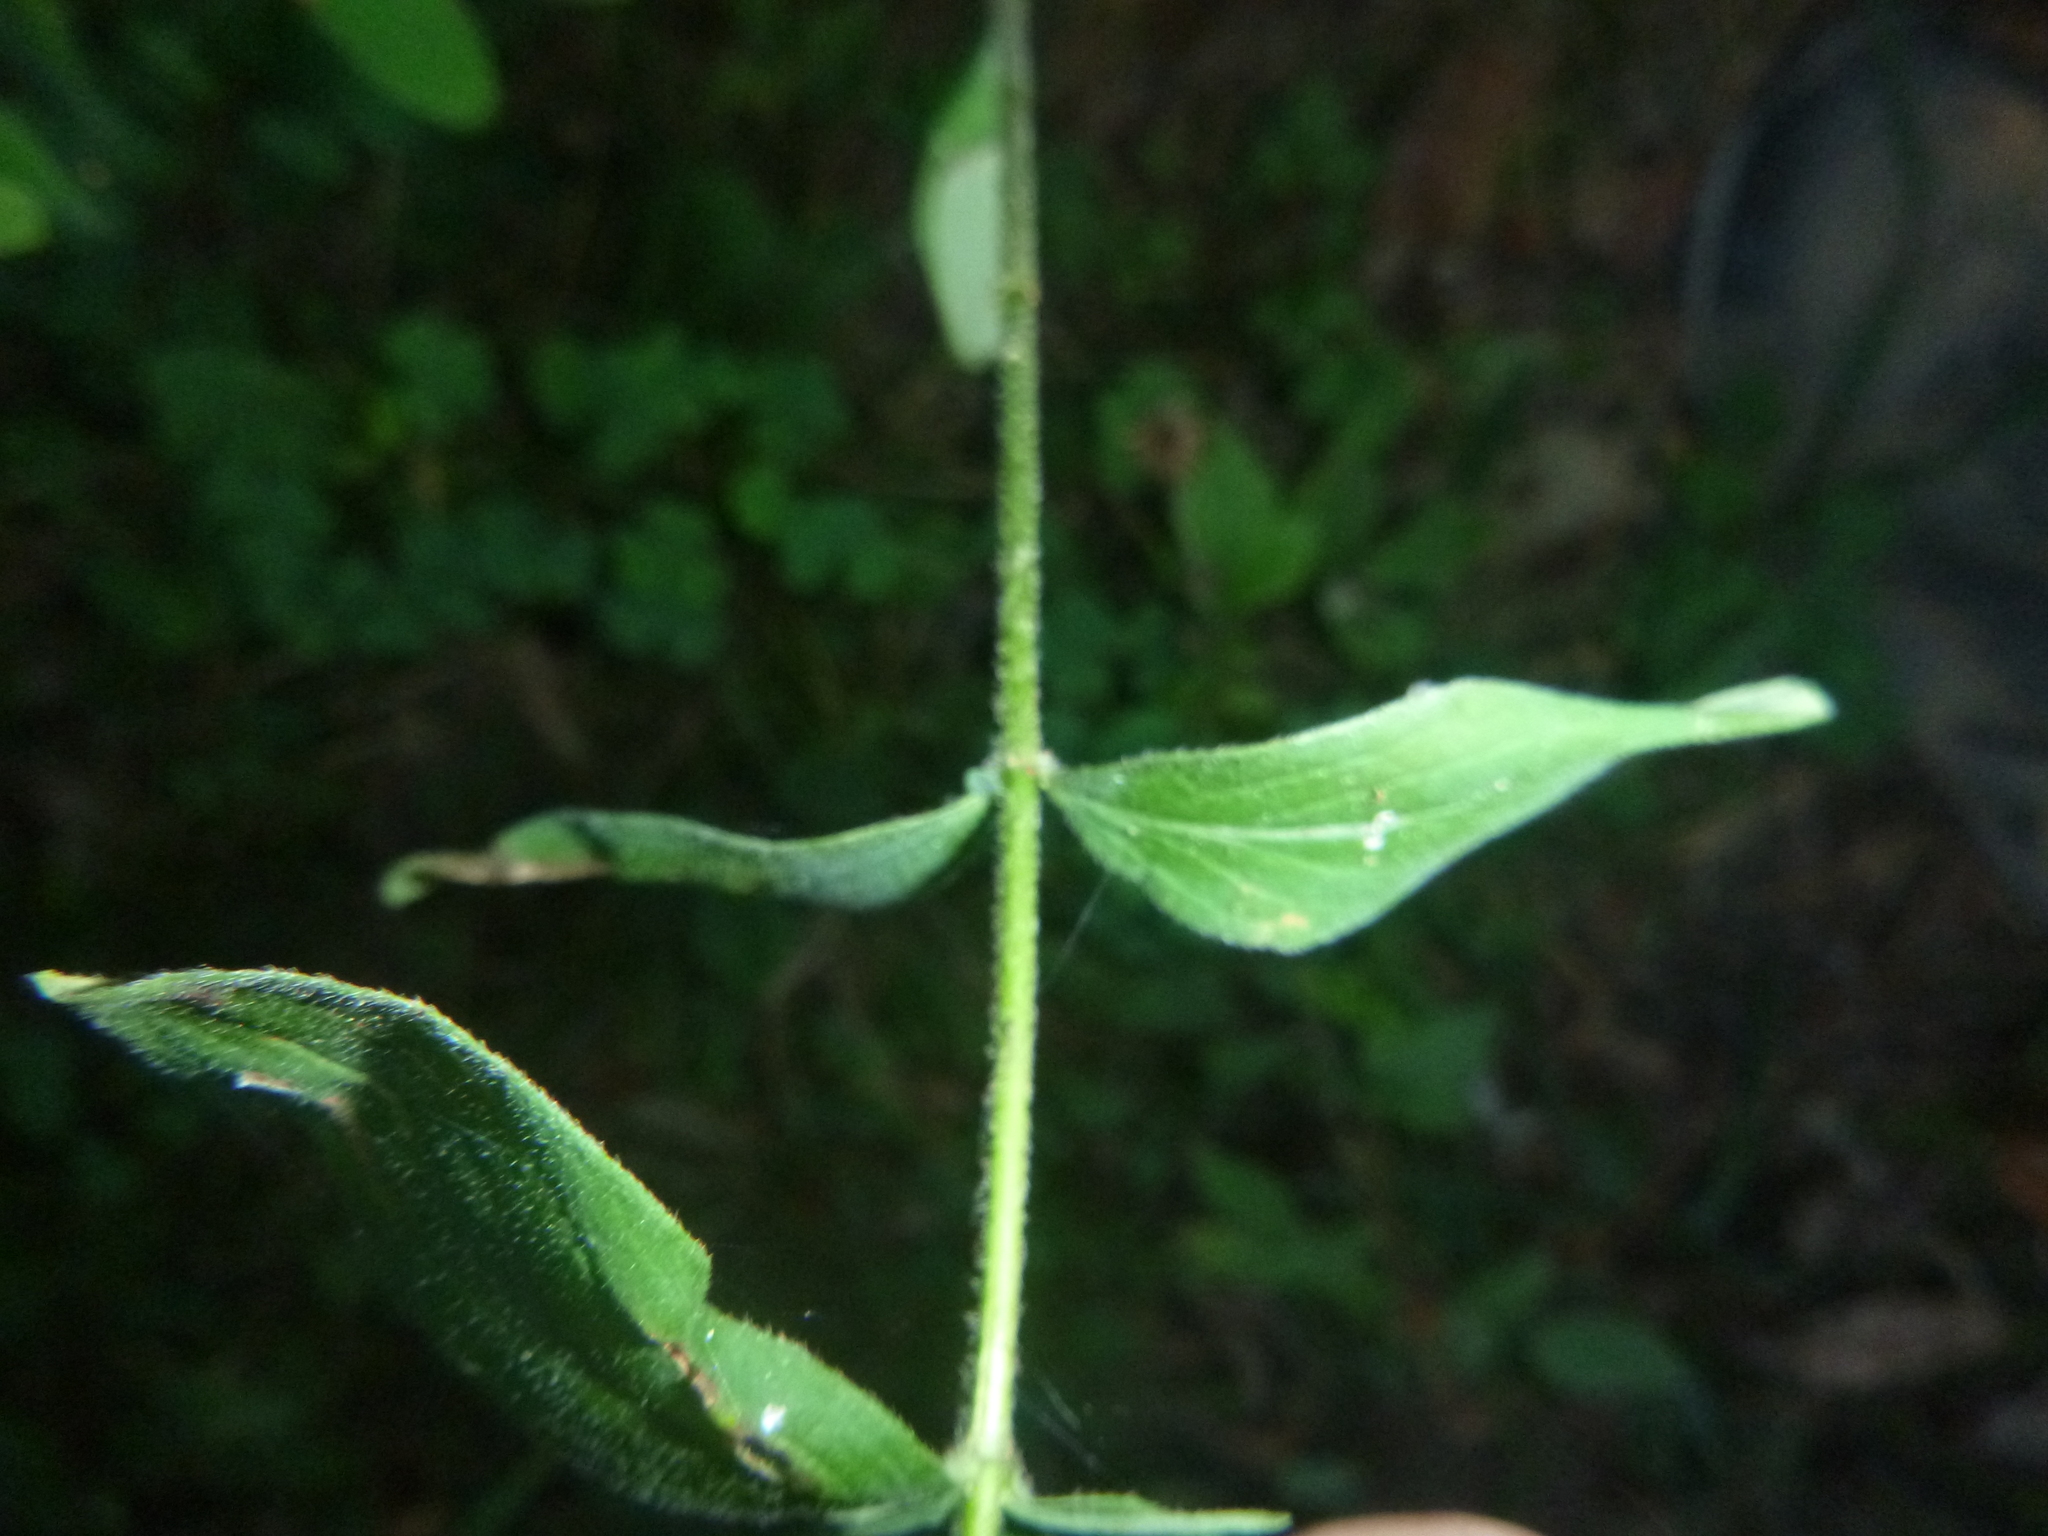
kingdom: Plantae
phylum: Tracheophyta
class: Magnoliopsida
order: Malpighiales
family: Hypericaceae
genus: Hypericum
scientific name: Hypericum hirsutum
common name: Hairy st. john's-wort
